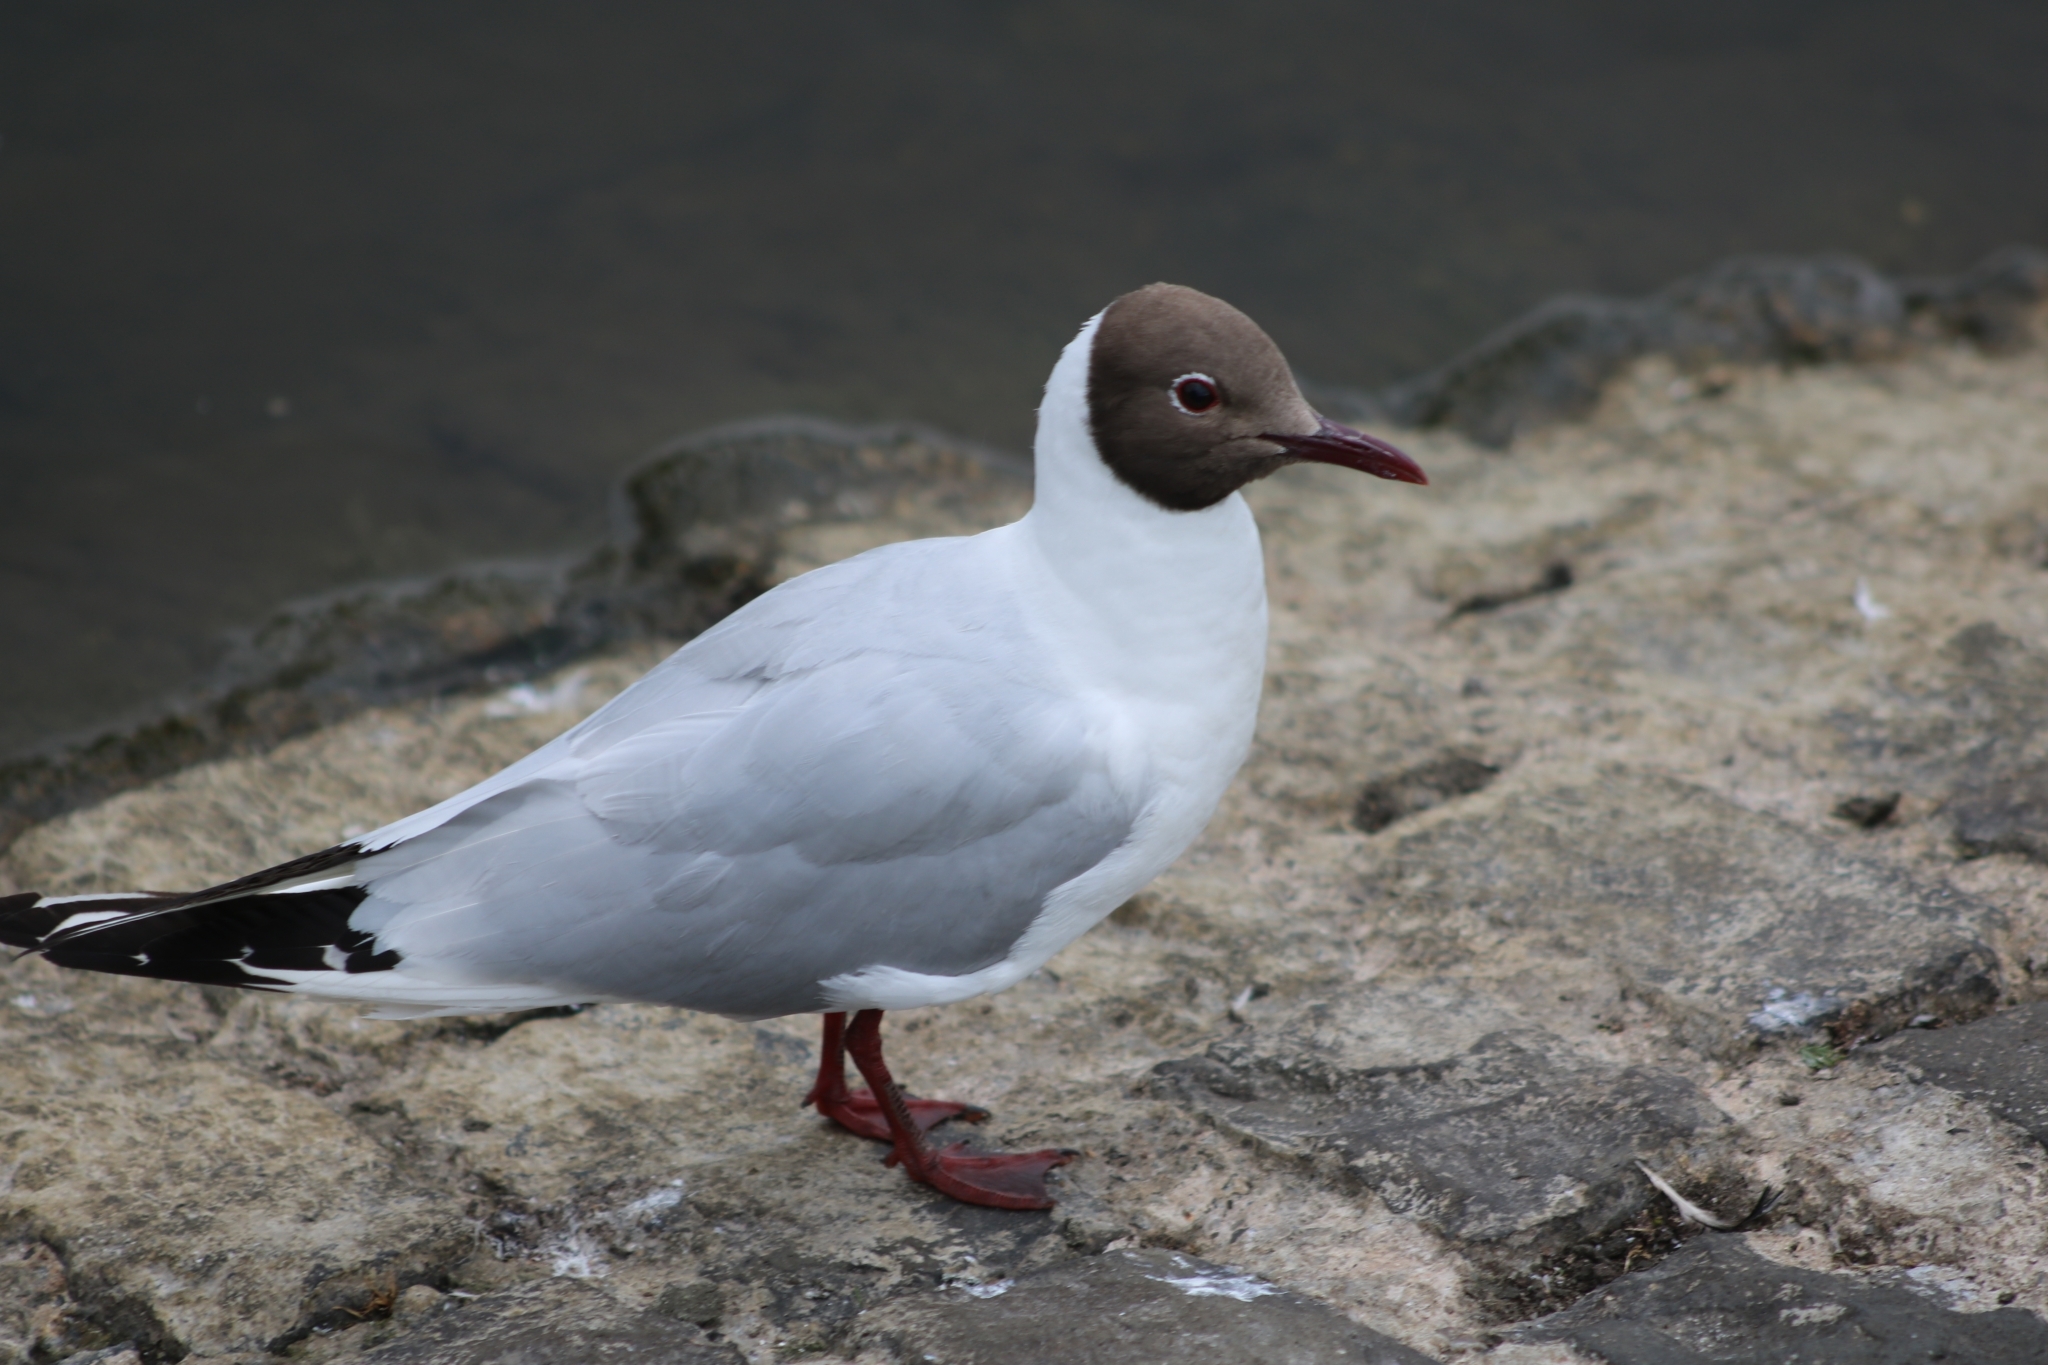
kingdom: Animalia
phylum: Chordata
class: Aves
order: Charadriiformes
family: Laridae
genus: Chroicocephalus
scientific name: Chroicocephalus ridibundus
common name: Black-headed gull
